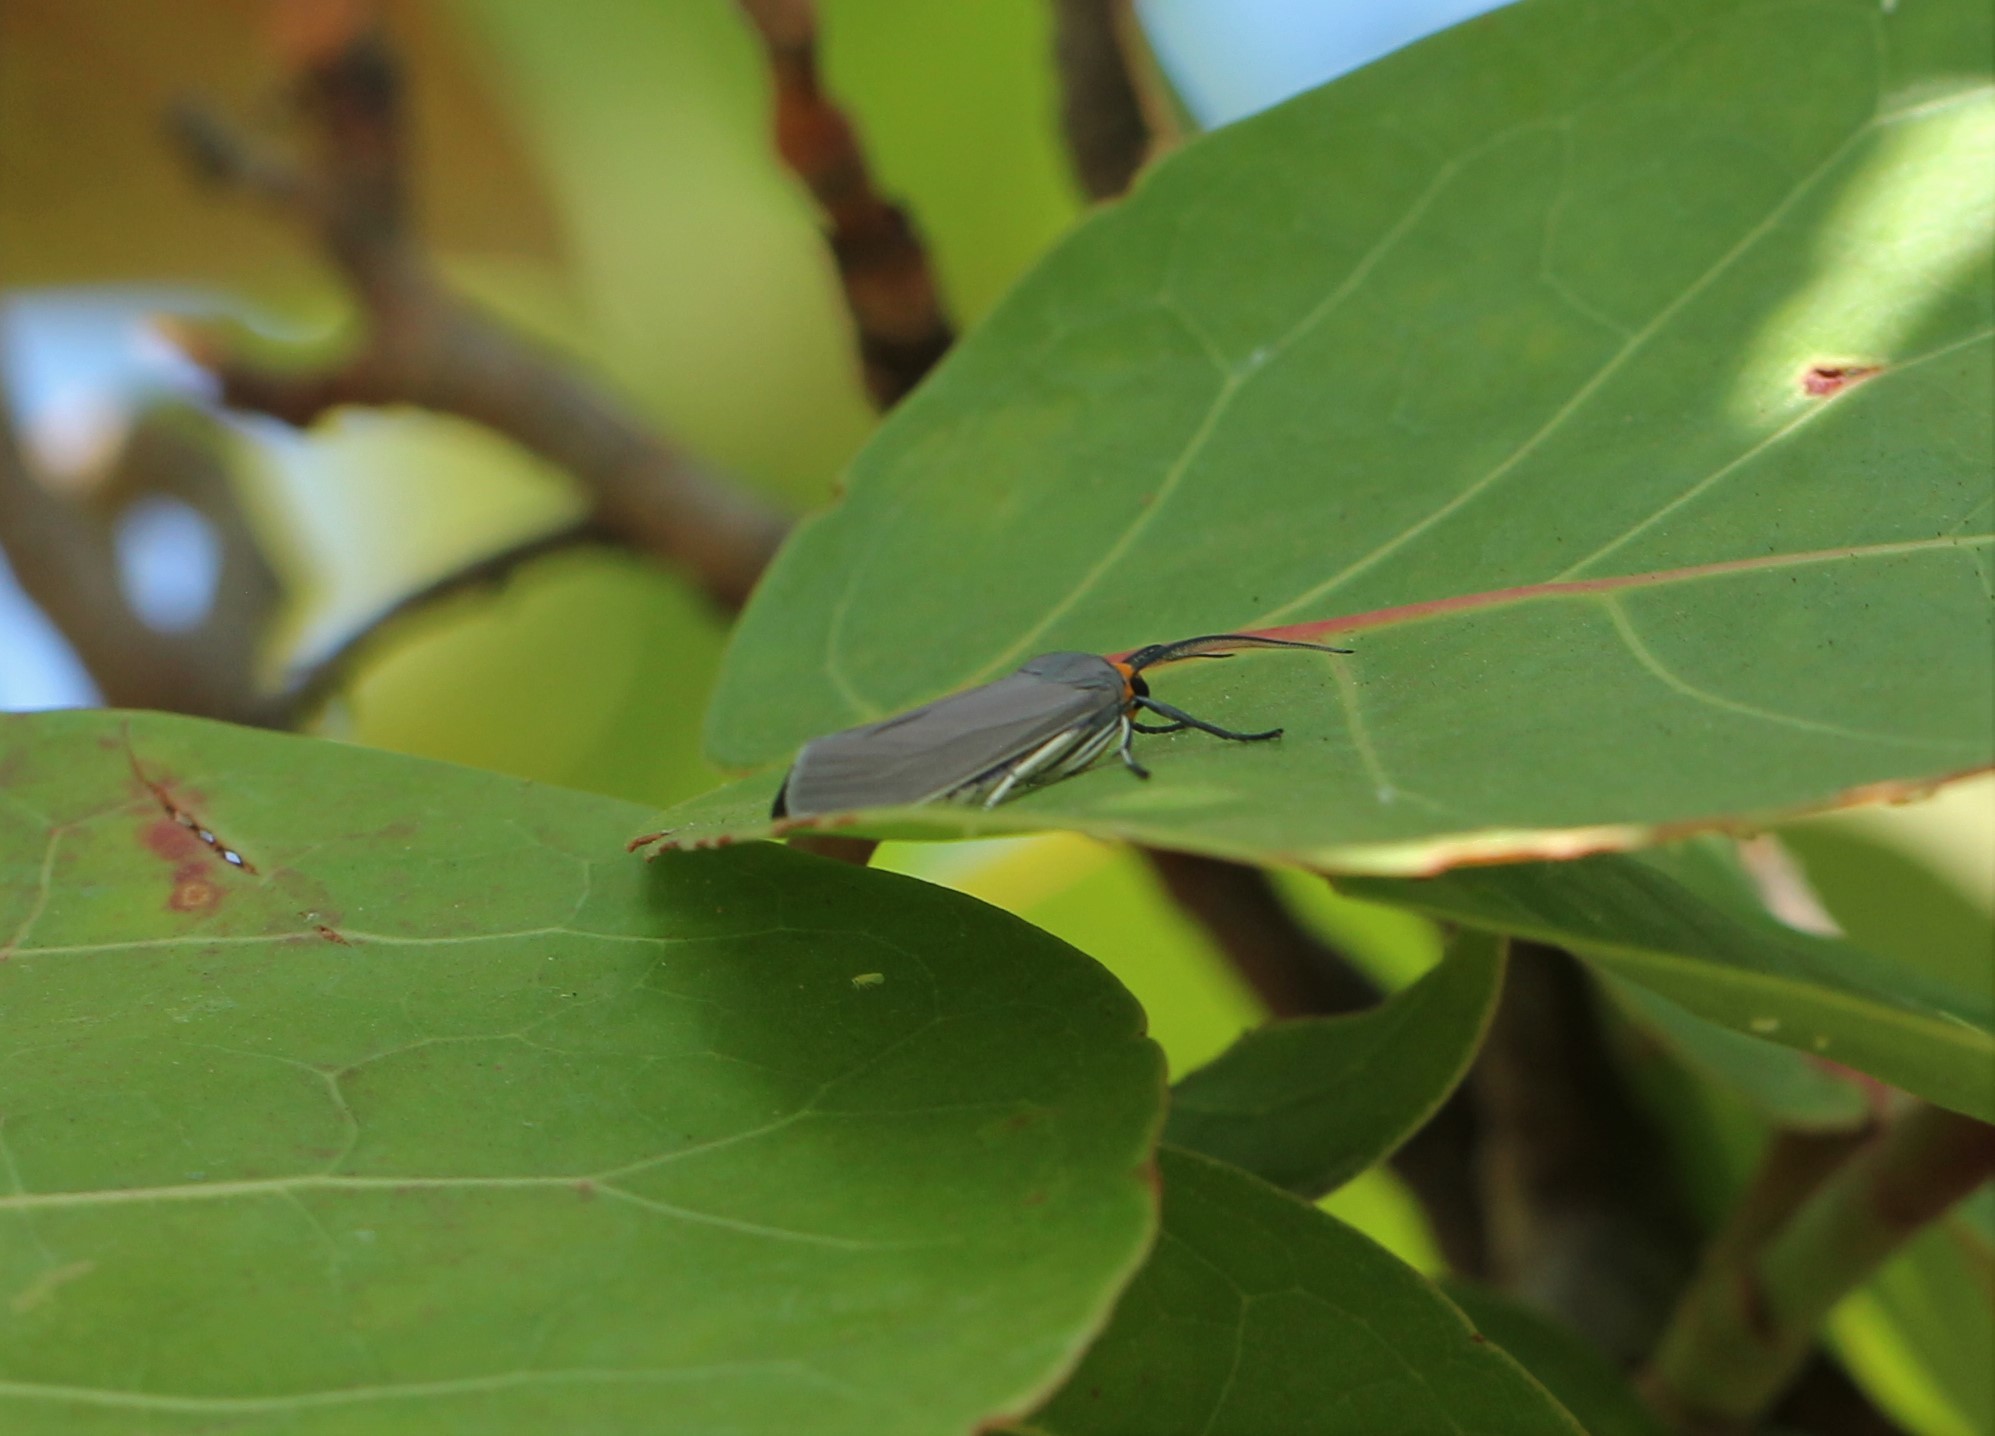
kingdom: Animalia
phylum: Arthropoda
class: Insecta
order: Lepidoptera
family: Erebidae
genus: Lymire
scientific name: Lymire edwardsii
